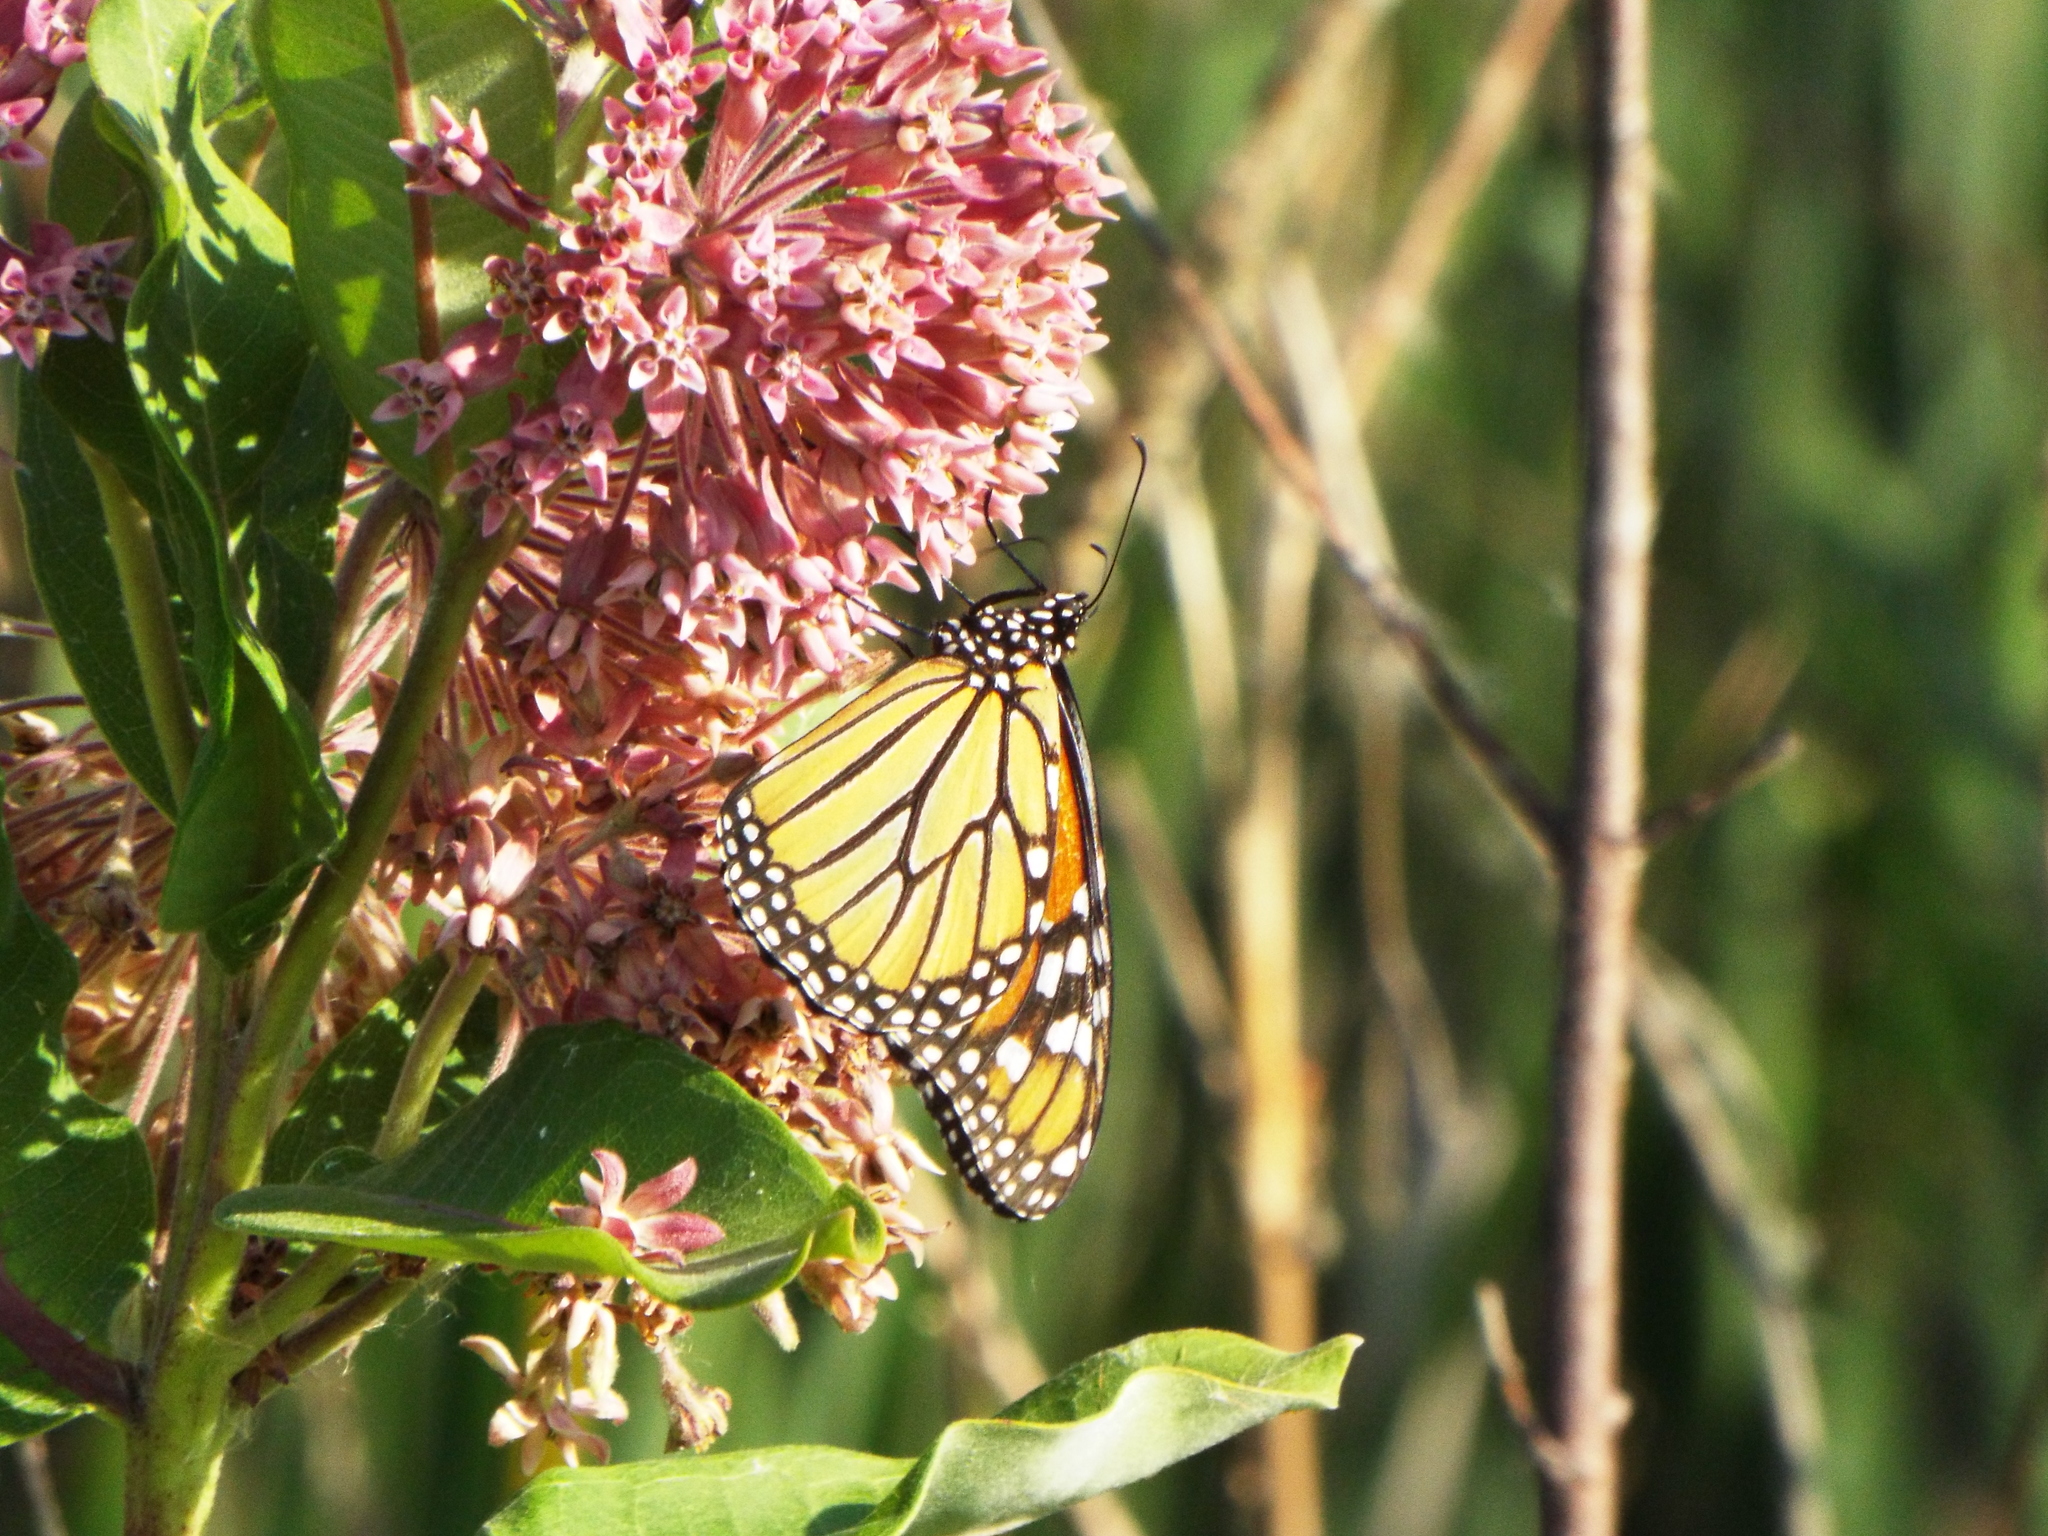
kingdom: Animalia
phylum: Arthropoda
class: Insecta
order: Lepidoptera
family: Nymphalidae
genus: Danaus
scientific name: Danaus plexippus
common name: Monarch
